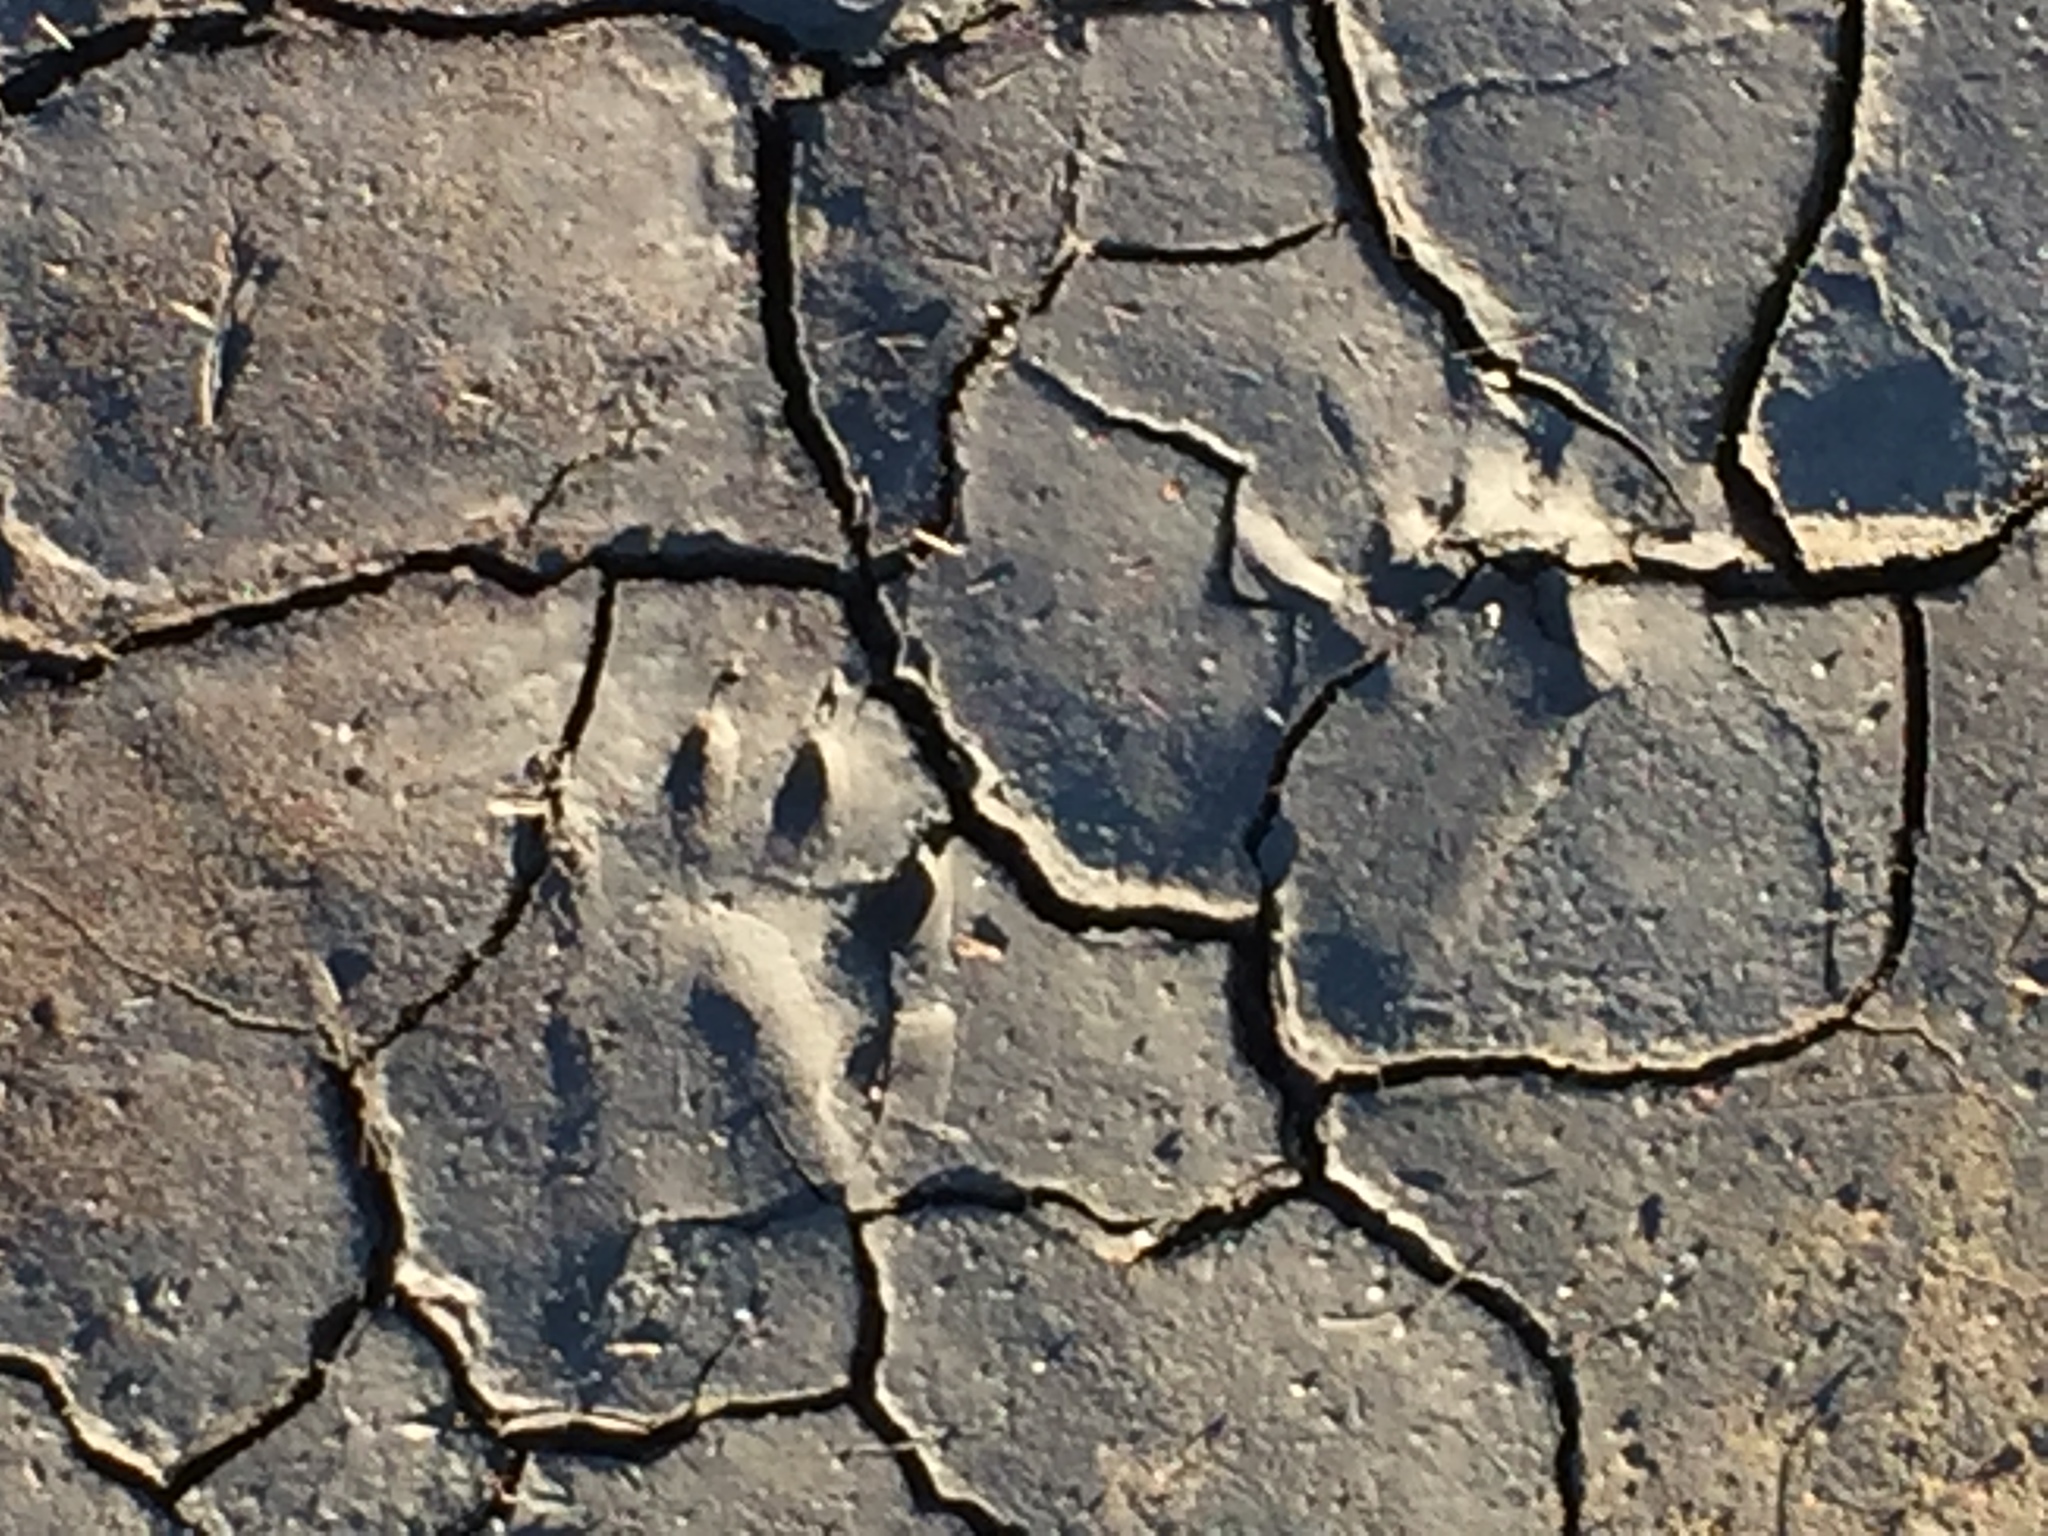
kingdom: Animalia
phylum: Chordata
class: Mammalia
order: Carnivora
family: Procyonidae
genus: Procyon
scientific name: Procyon lotor
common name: Raccoon
